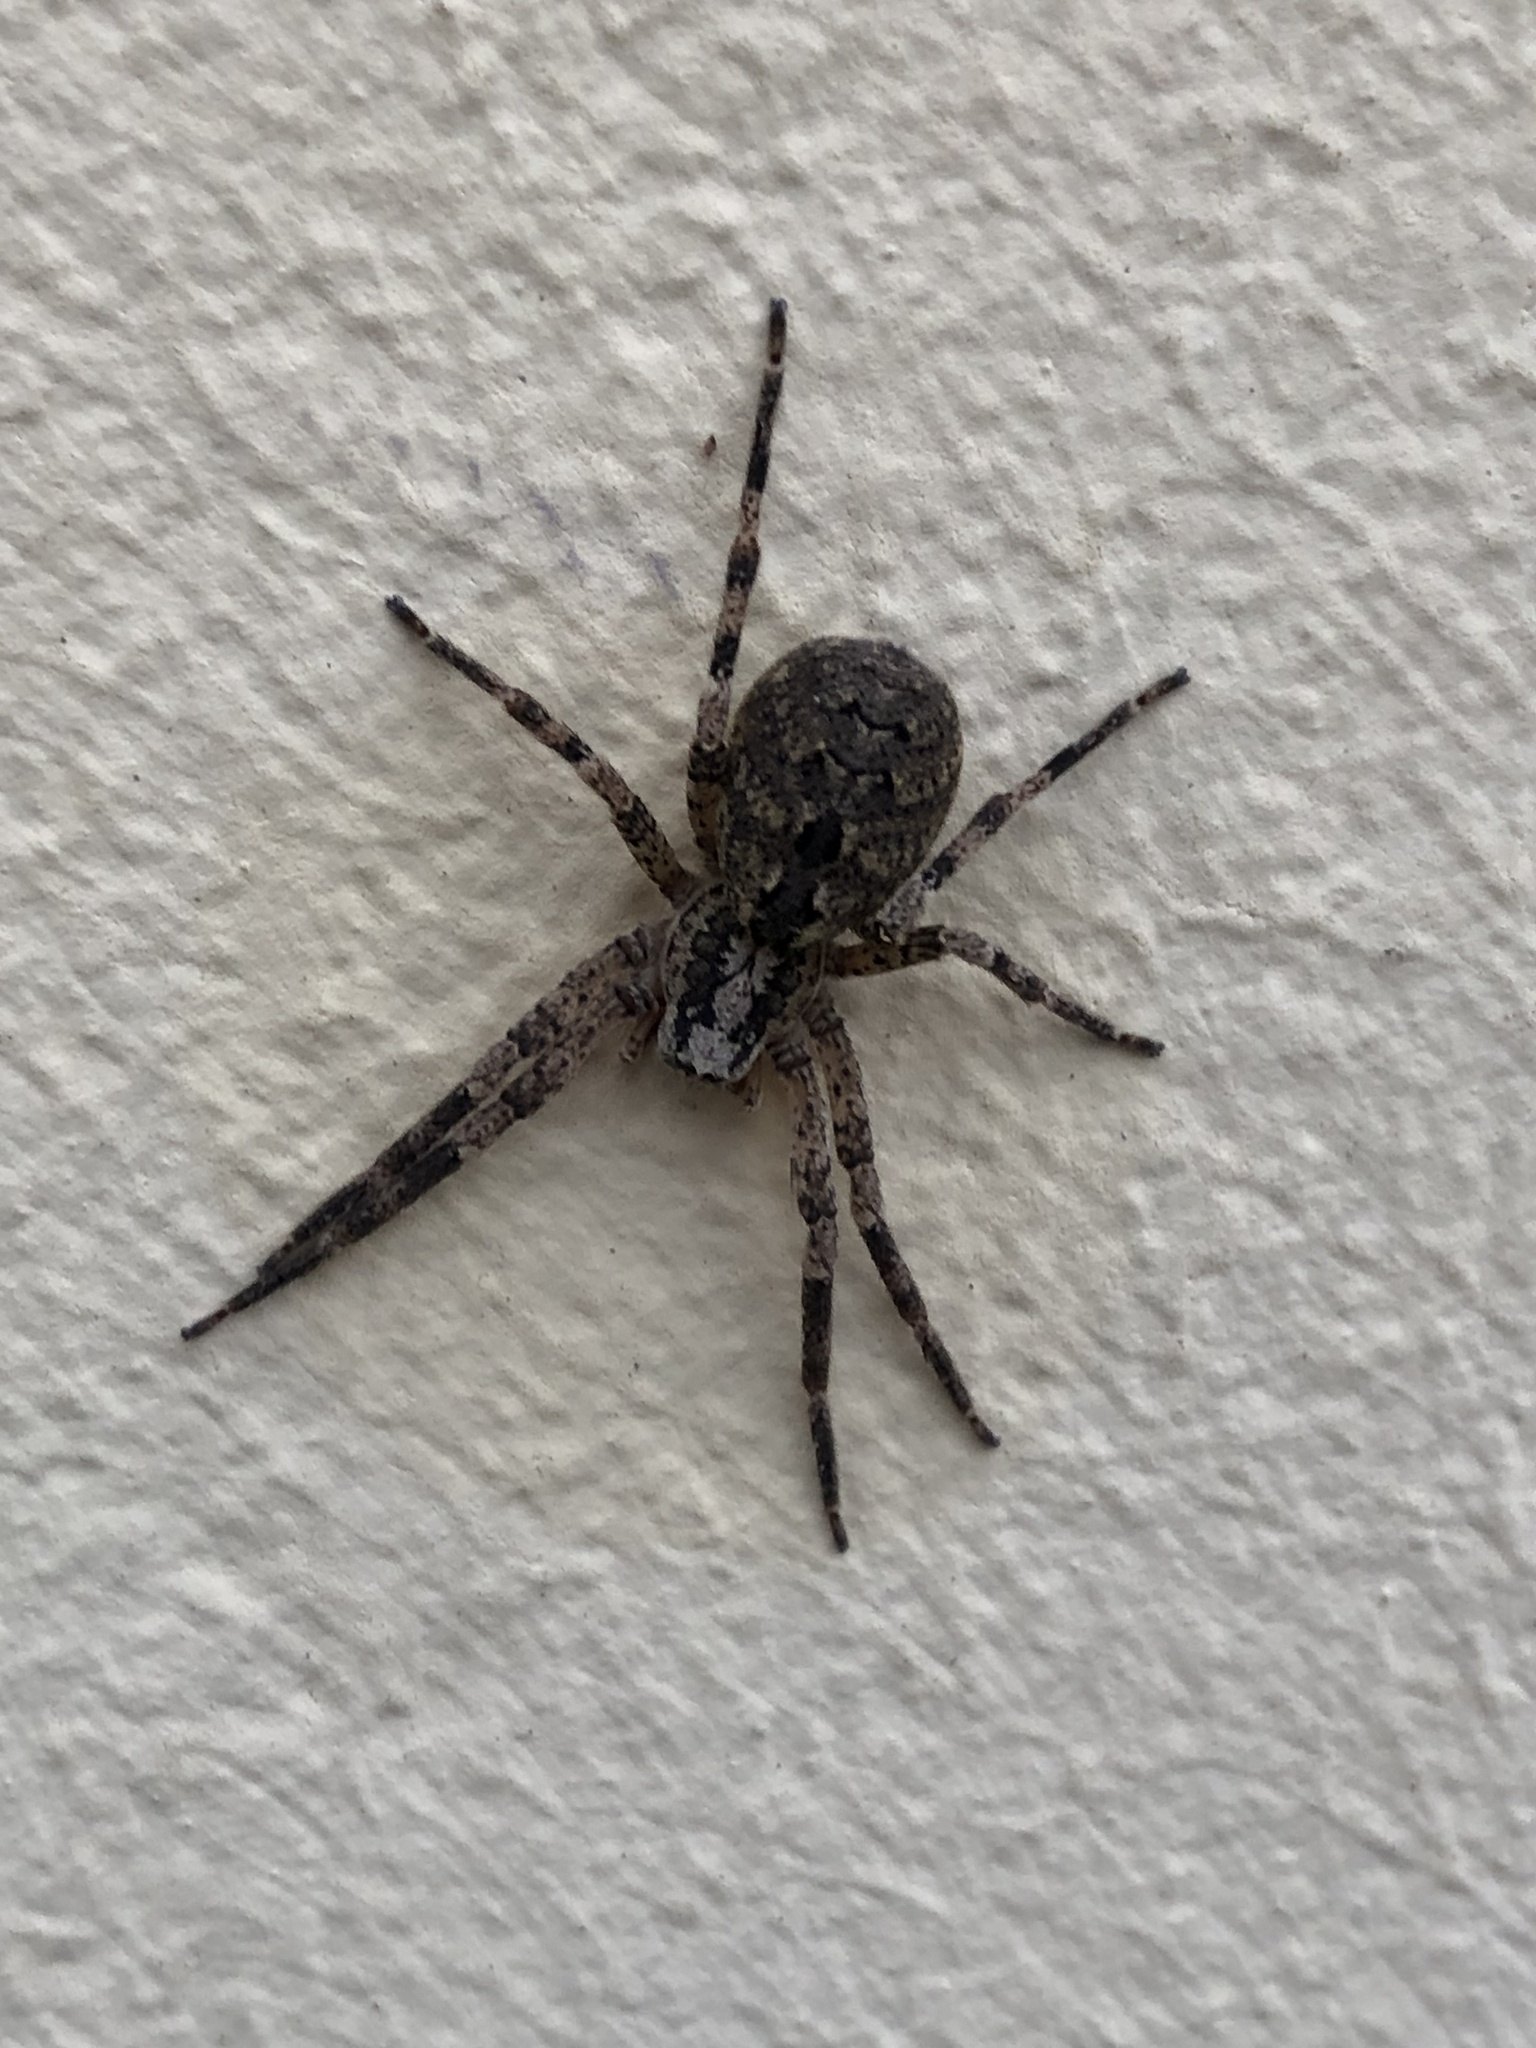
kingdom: Animalia
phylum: Arthropoda
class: Arachnida
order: Araneae
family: Zoropsidae
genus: Zoropsis
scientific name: Zoropsis spinimana
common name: Zoropsid spider
